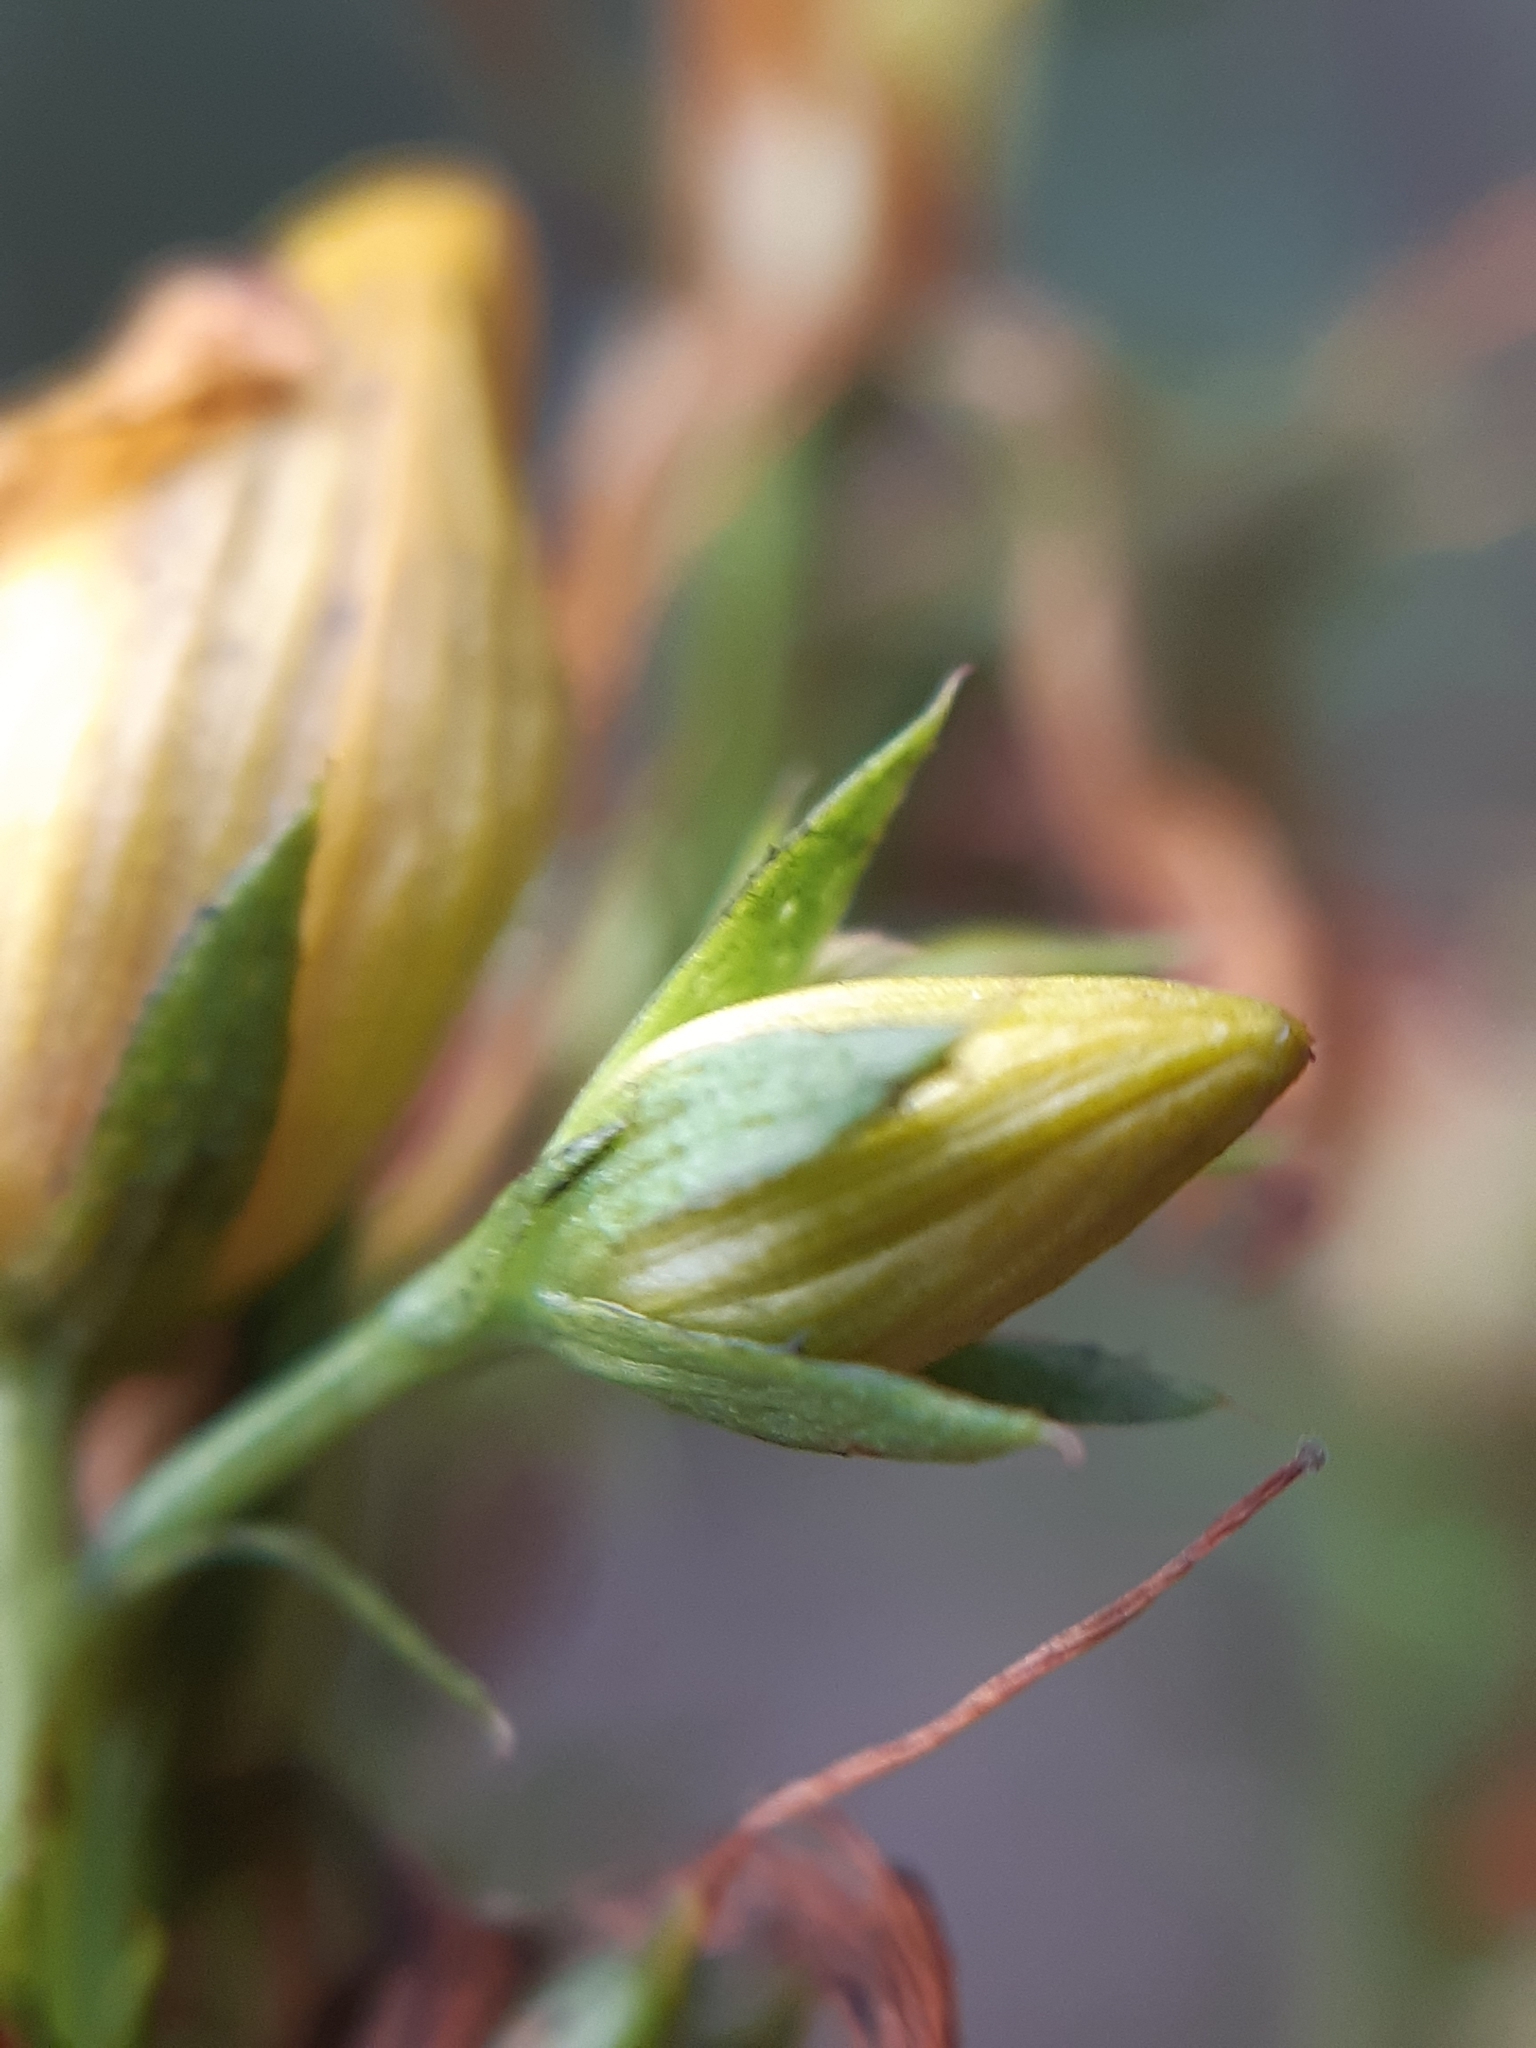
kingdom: Plantae
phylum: Tracheophyta
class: Magnoliopsida
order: Malpighiales
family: Hypericaceae
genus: Hypericum
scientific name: Hypericum perforatum
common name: Common st. johnswort
